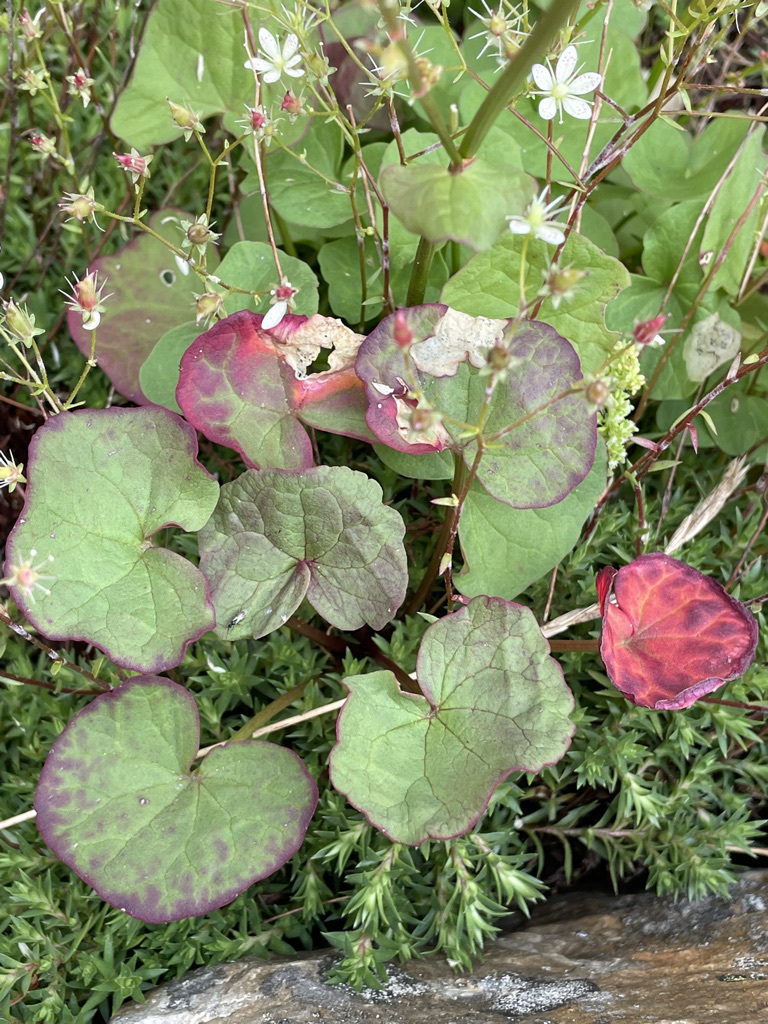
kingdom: Plantae
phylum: Tracheophyta
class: Magnoliopsida
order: Caryophyllales
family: Polygonaceae
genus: Oxyria
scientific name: Oxyria digyna
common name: Alpine mountain-sorrel
